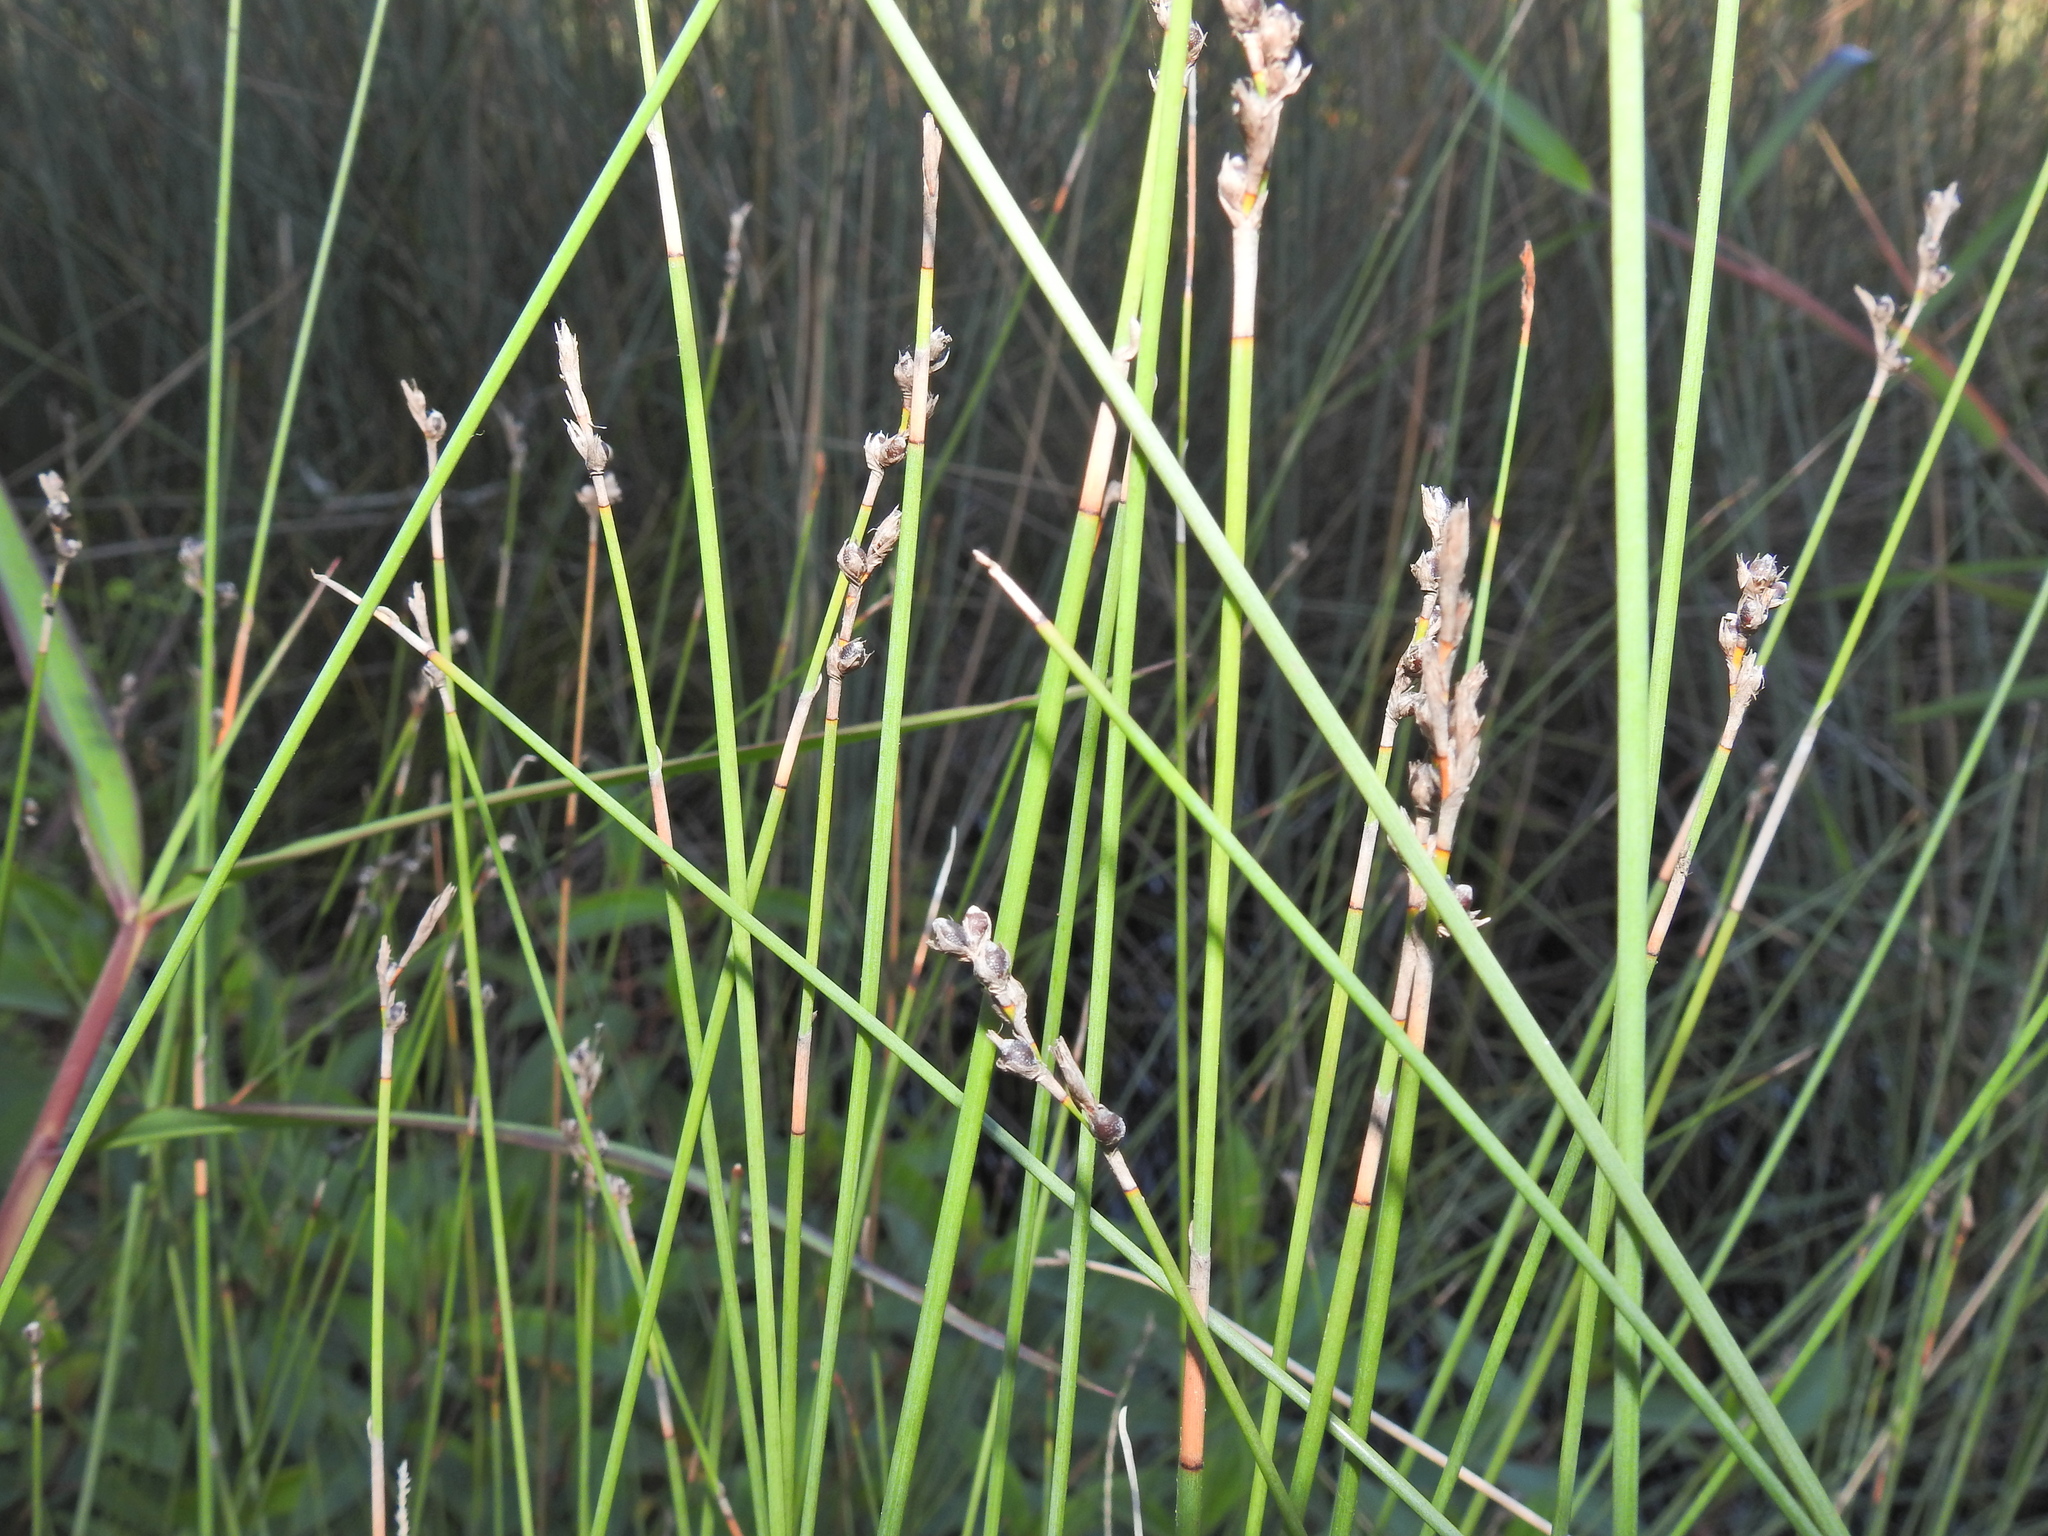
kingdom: Plantae
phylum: Tracheophyta
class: Liliopsida
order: Poales
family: Cyperaceae
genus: Machaerina
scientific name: Machaerina juncea
